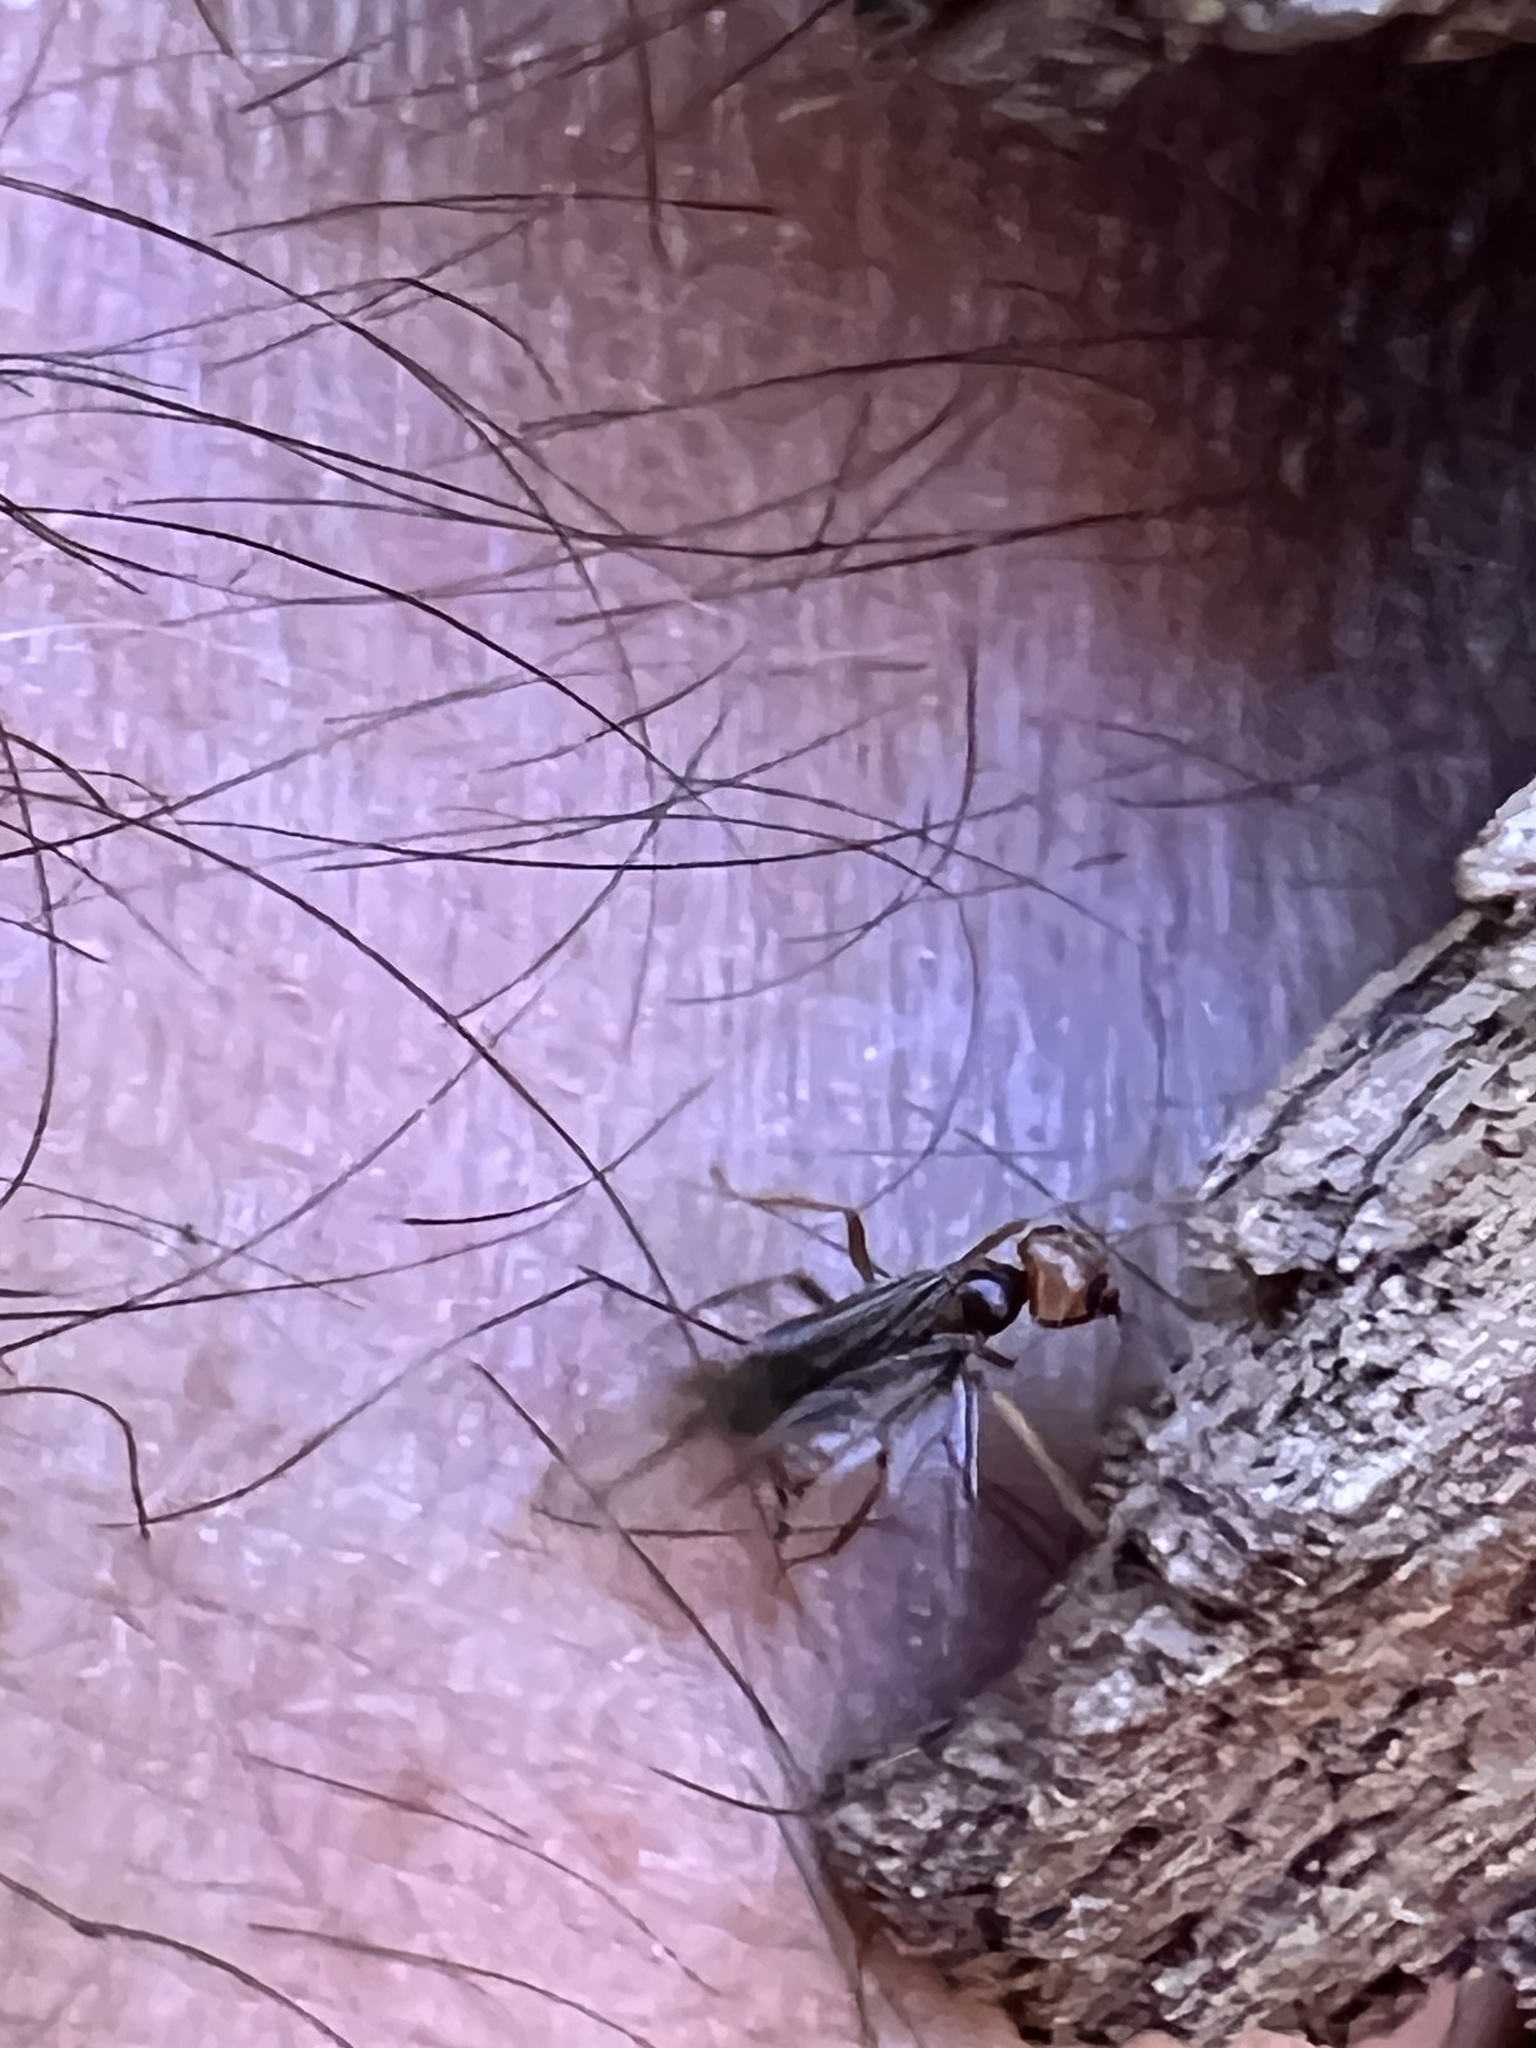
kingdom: Animalia
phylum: Arthropoda
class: Insecta
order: Hymenoptera
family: Formicidae
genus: Acanthomyops
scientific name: Acanthomyops interjectus
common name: Larger yellow ant
